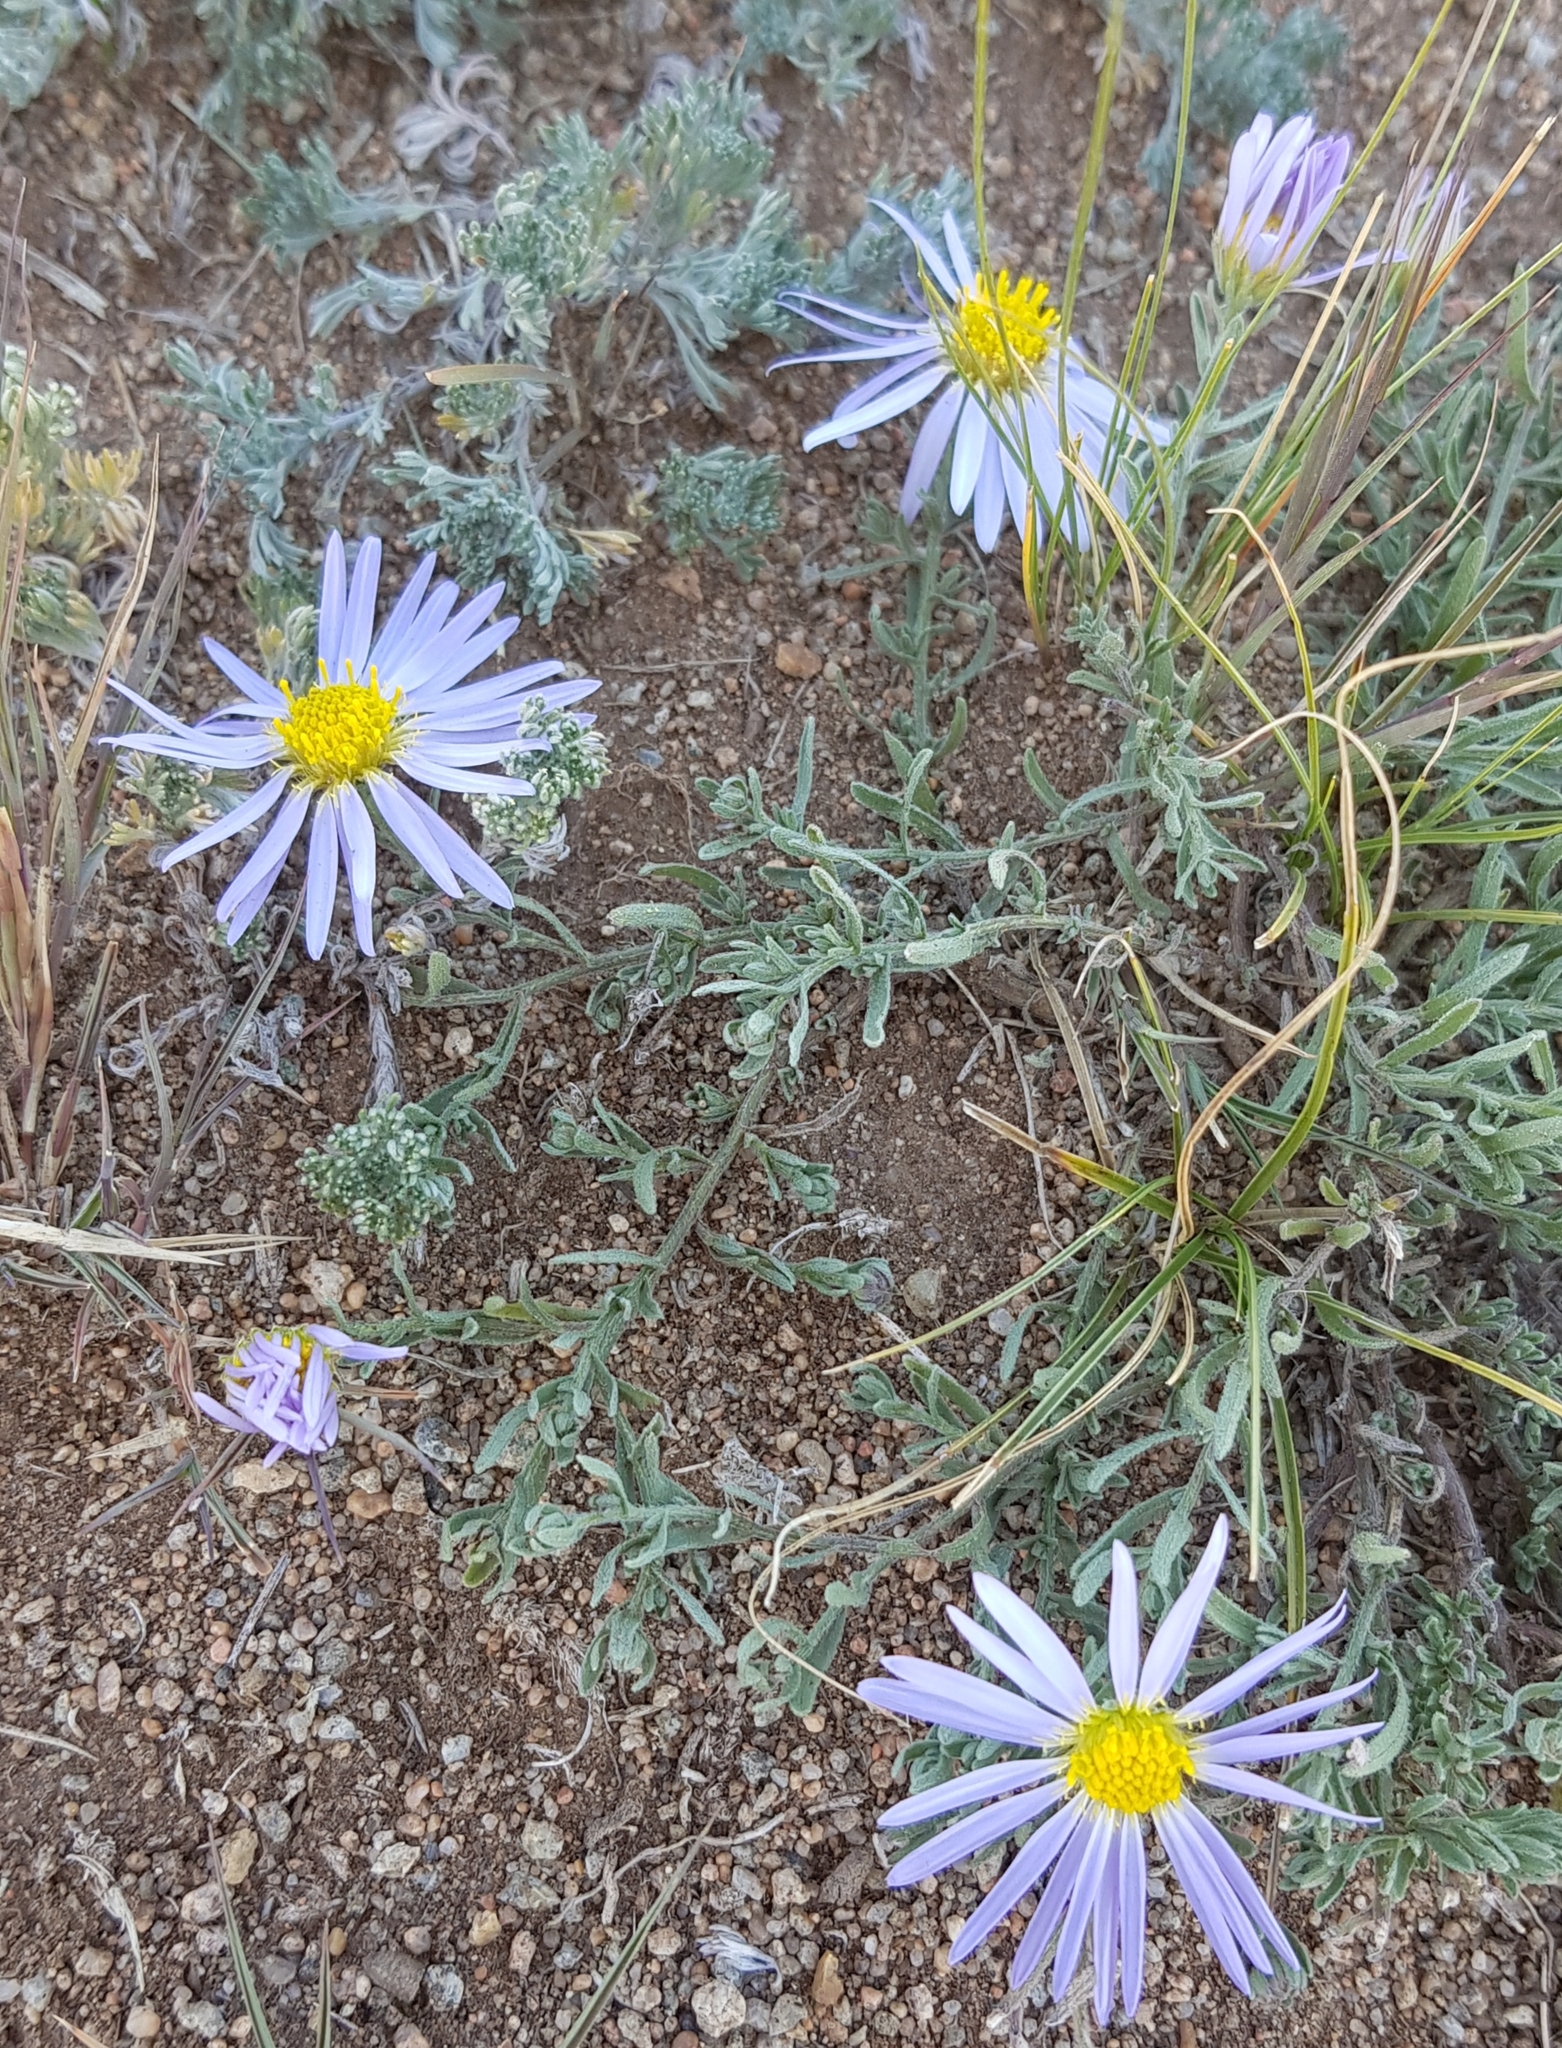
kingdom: Plantae
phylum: Tracheophyta
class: Magnoliopsida
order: Asterales
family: Asteraceae
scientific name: Asteraceae
